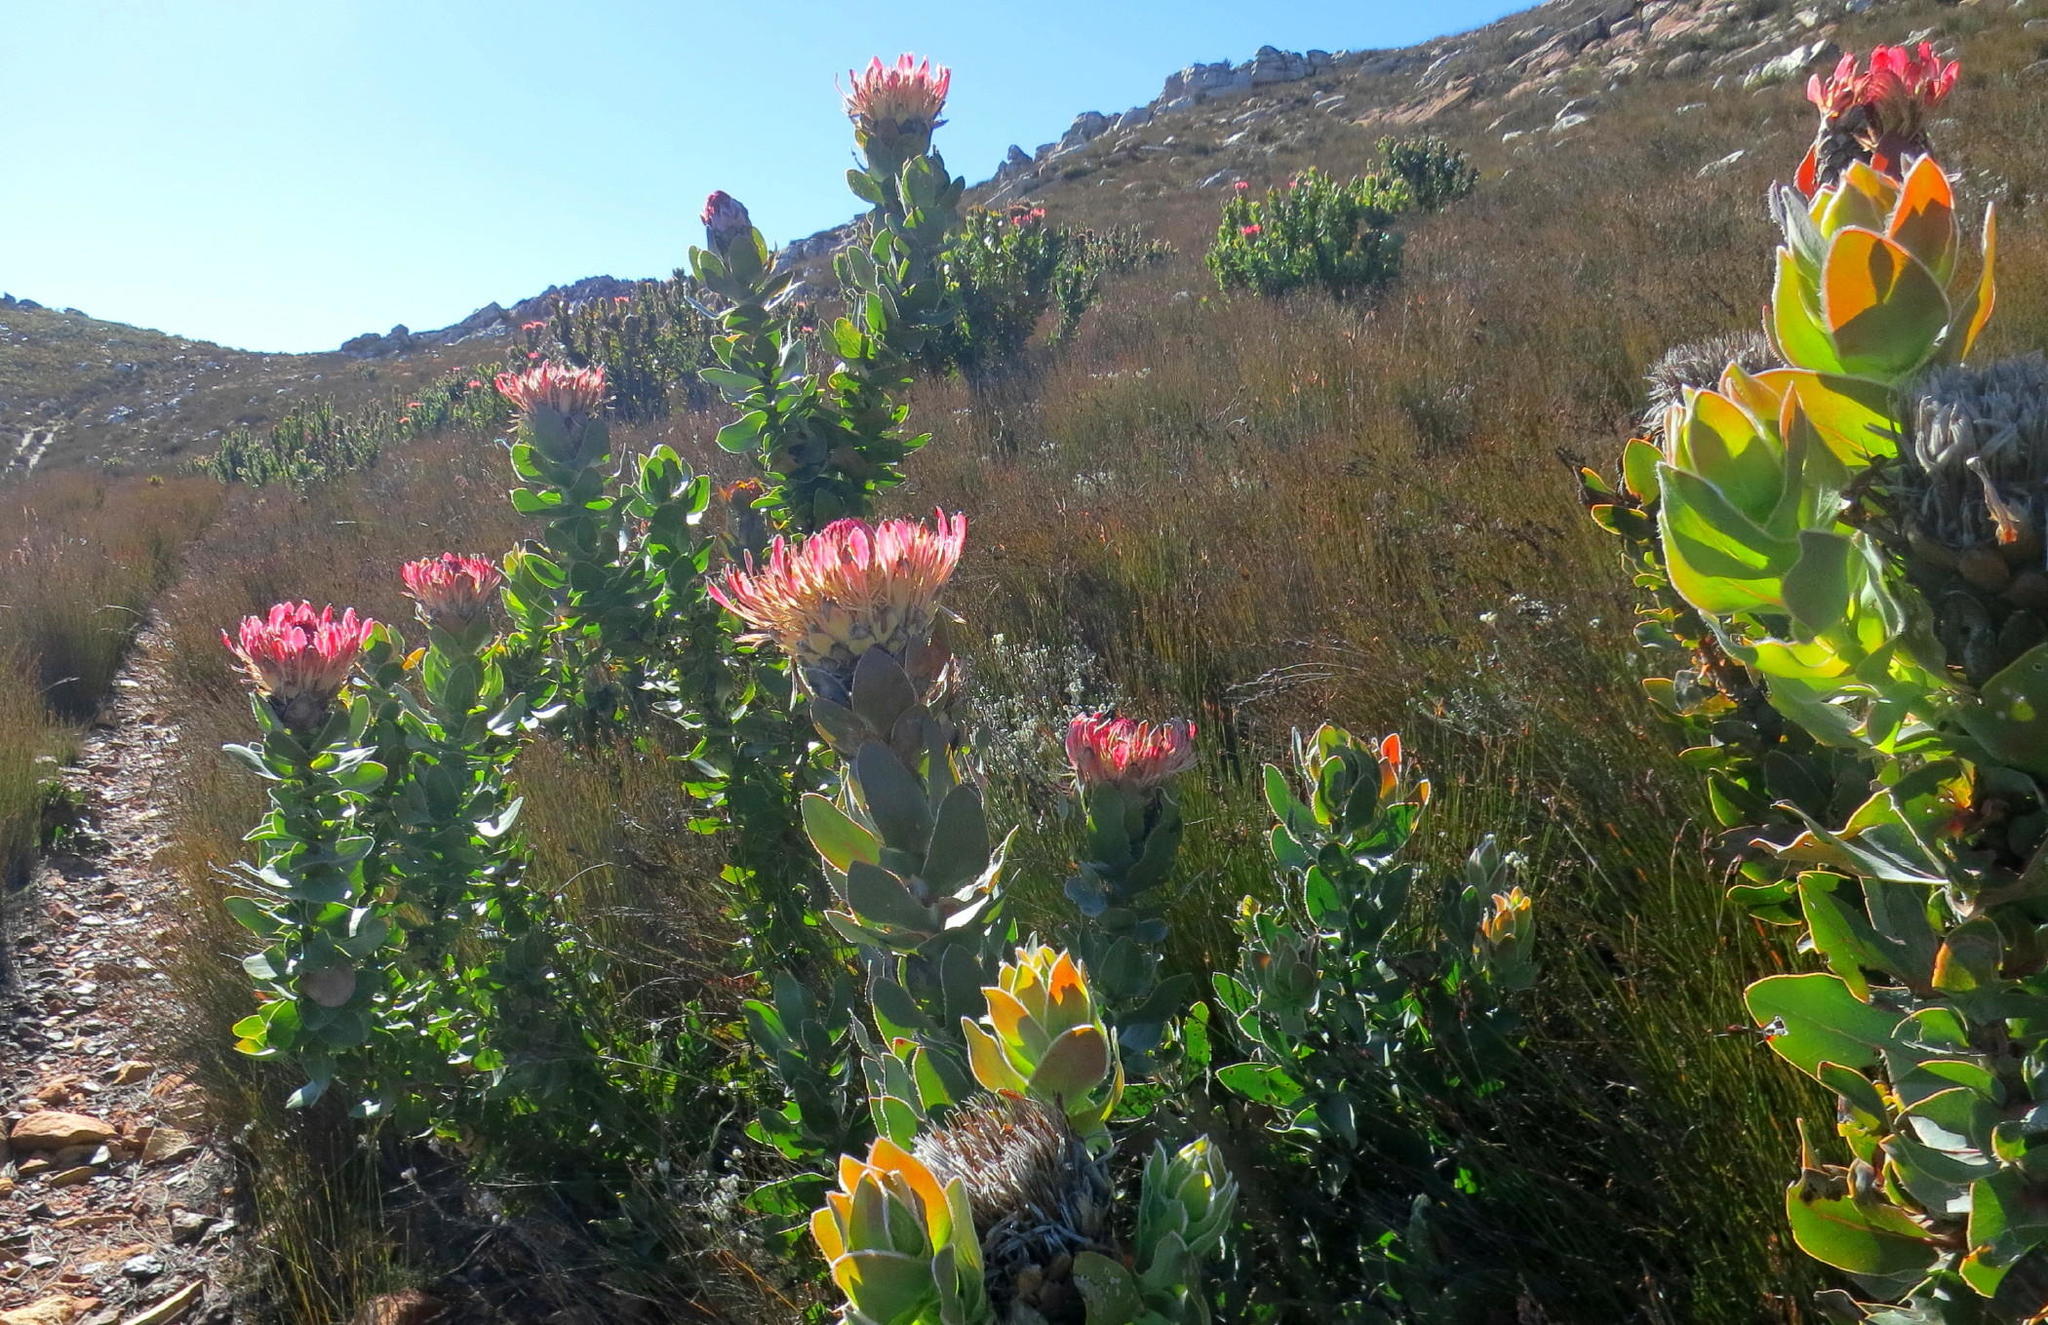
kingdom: Plantae
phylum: Tracheophyta
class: Magnoliopsida
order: Proteales
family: Proteaceae
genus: Protea
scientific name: Protea eximia
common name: Broad-leaved sugarbush
